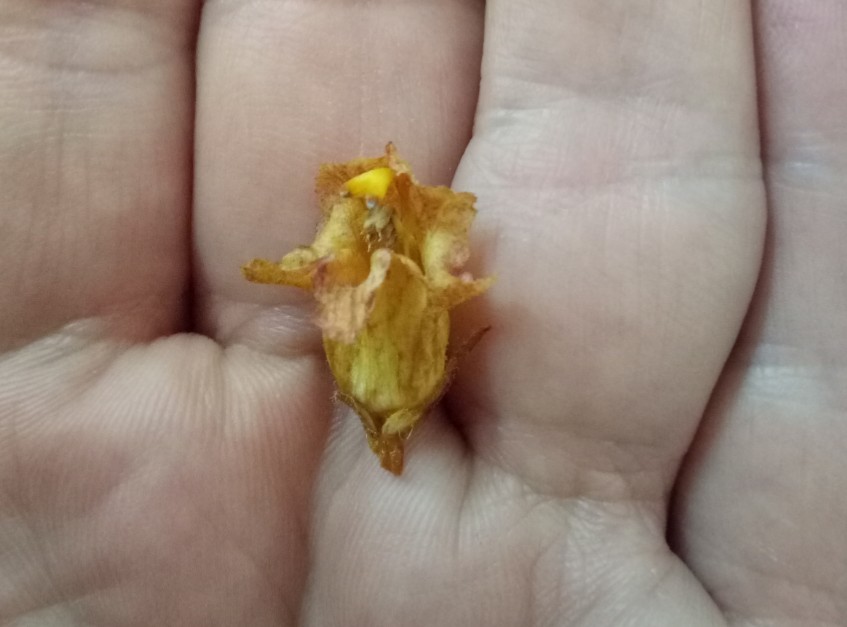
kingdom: Plantae
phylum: Tracheophyta
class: Magnoliopsida
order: Lamiales
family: Orobanchaceae
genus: Orobanche
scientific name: Orobanche variegata
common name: Variegated broomrape
